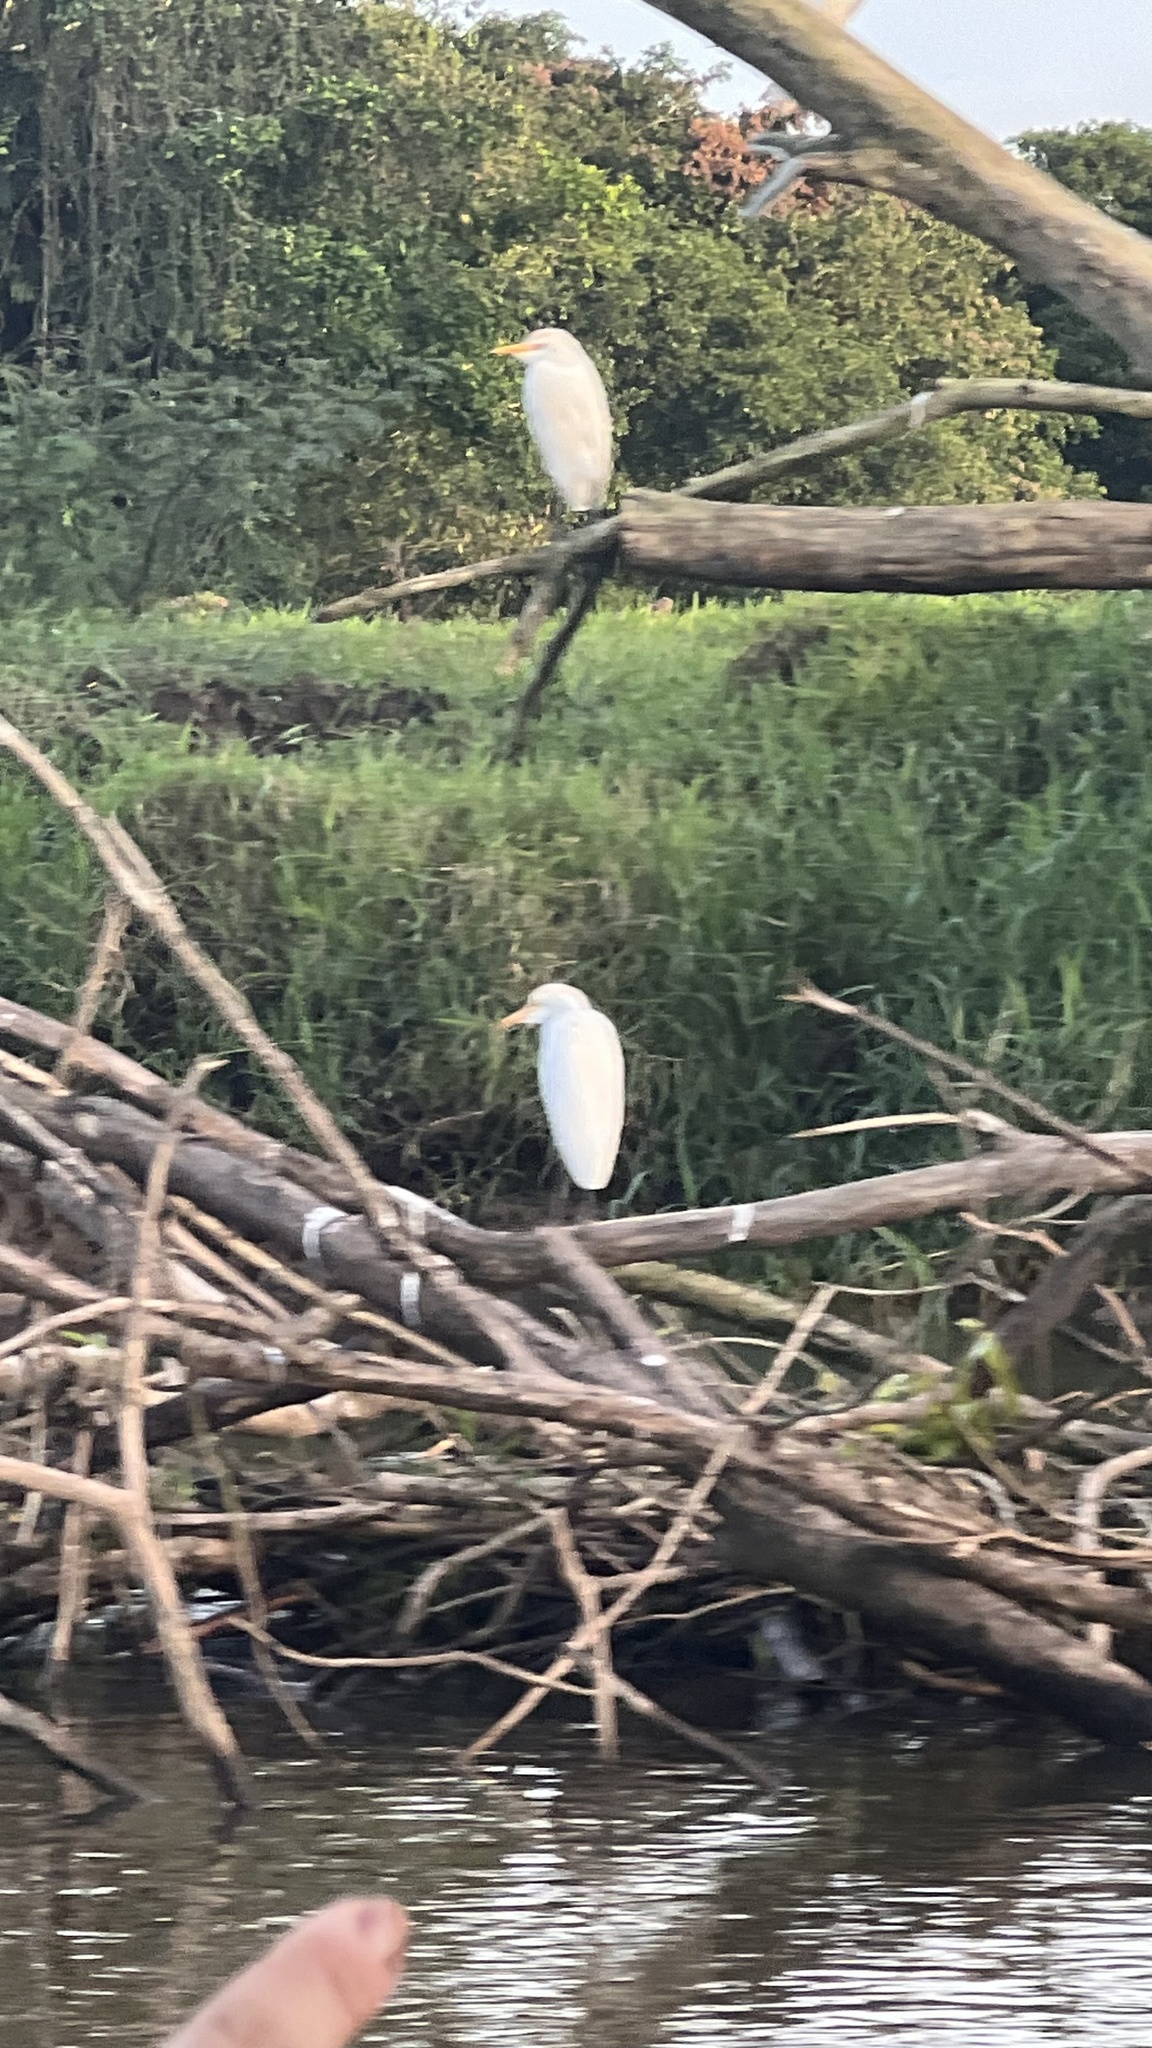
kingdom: Animalia
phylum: Chordata
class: Aves
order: Pelecaniformes
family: Ardeidae
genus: Bubulcus
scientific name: Bubulcus ibis
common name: Cattle egret
